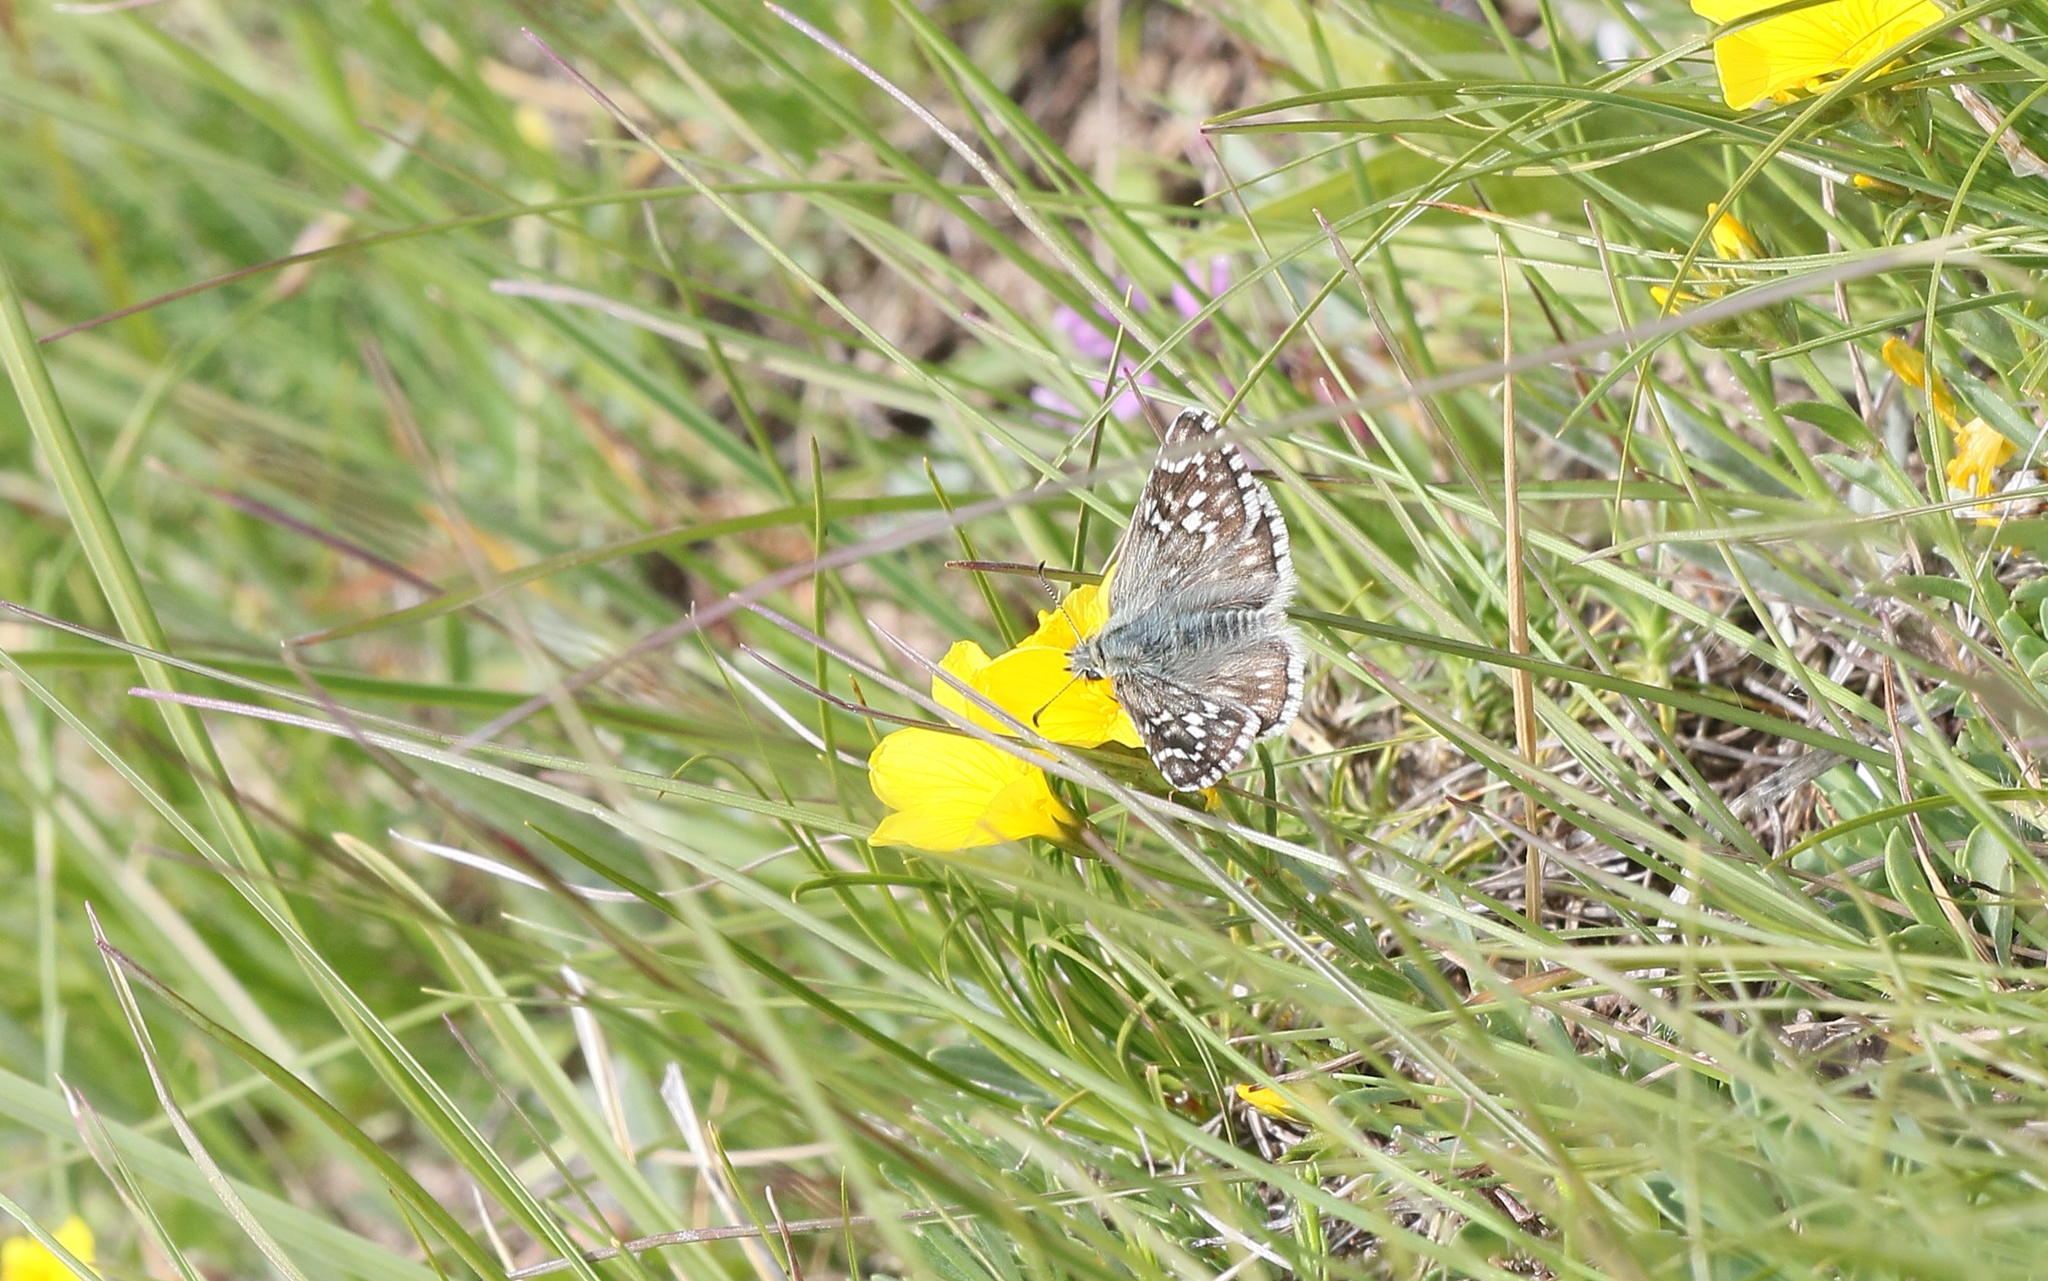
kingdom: Animalia
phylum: Arthropoda
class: Insecta
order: Lepidoptera
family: Hesperiidae
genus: Pyrgus
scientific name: Pyrgus fritillarius
